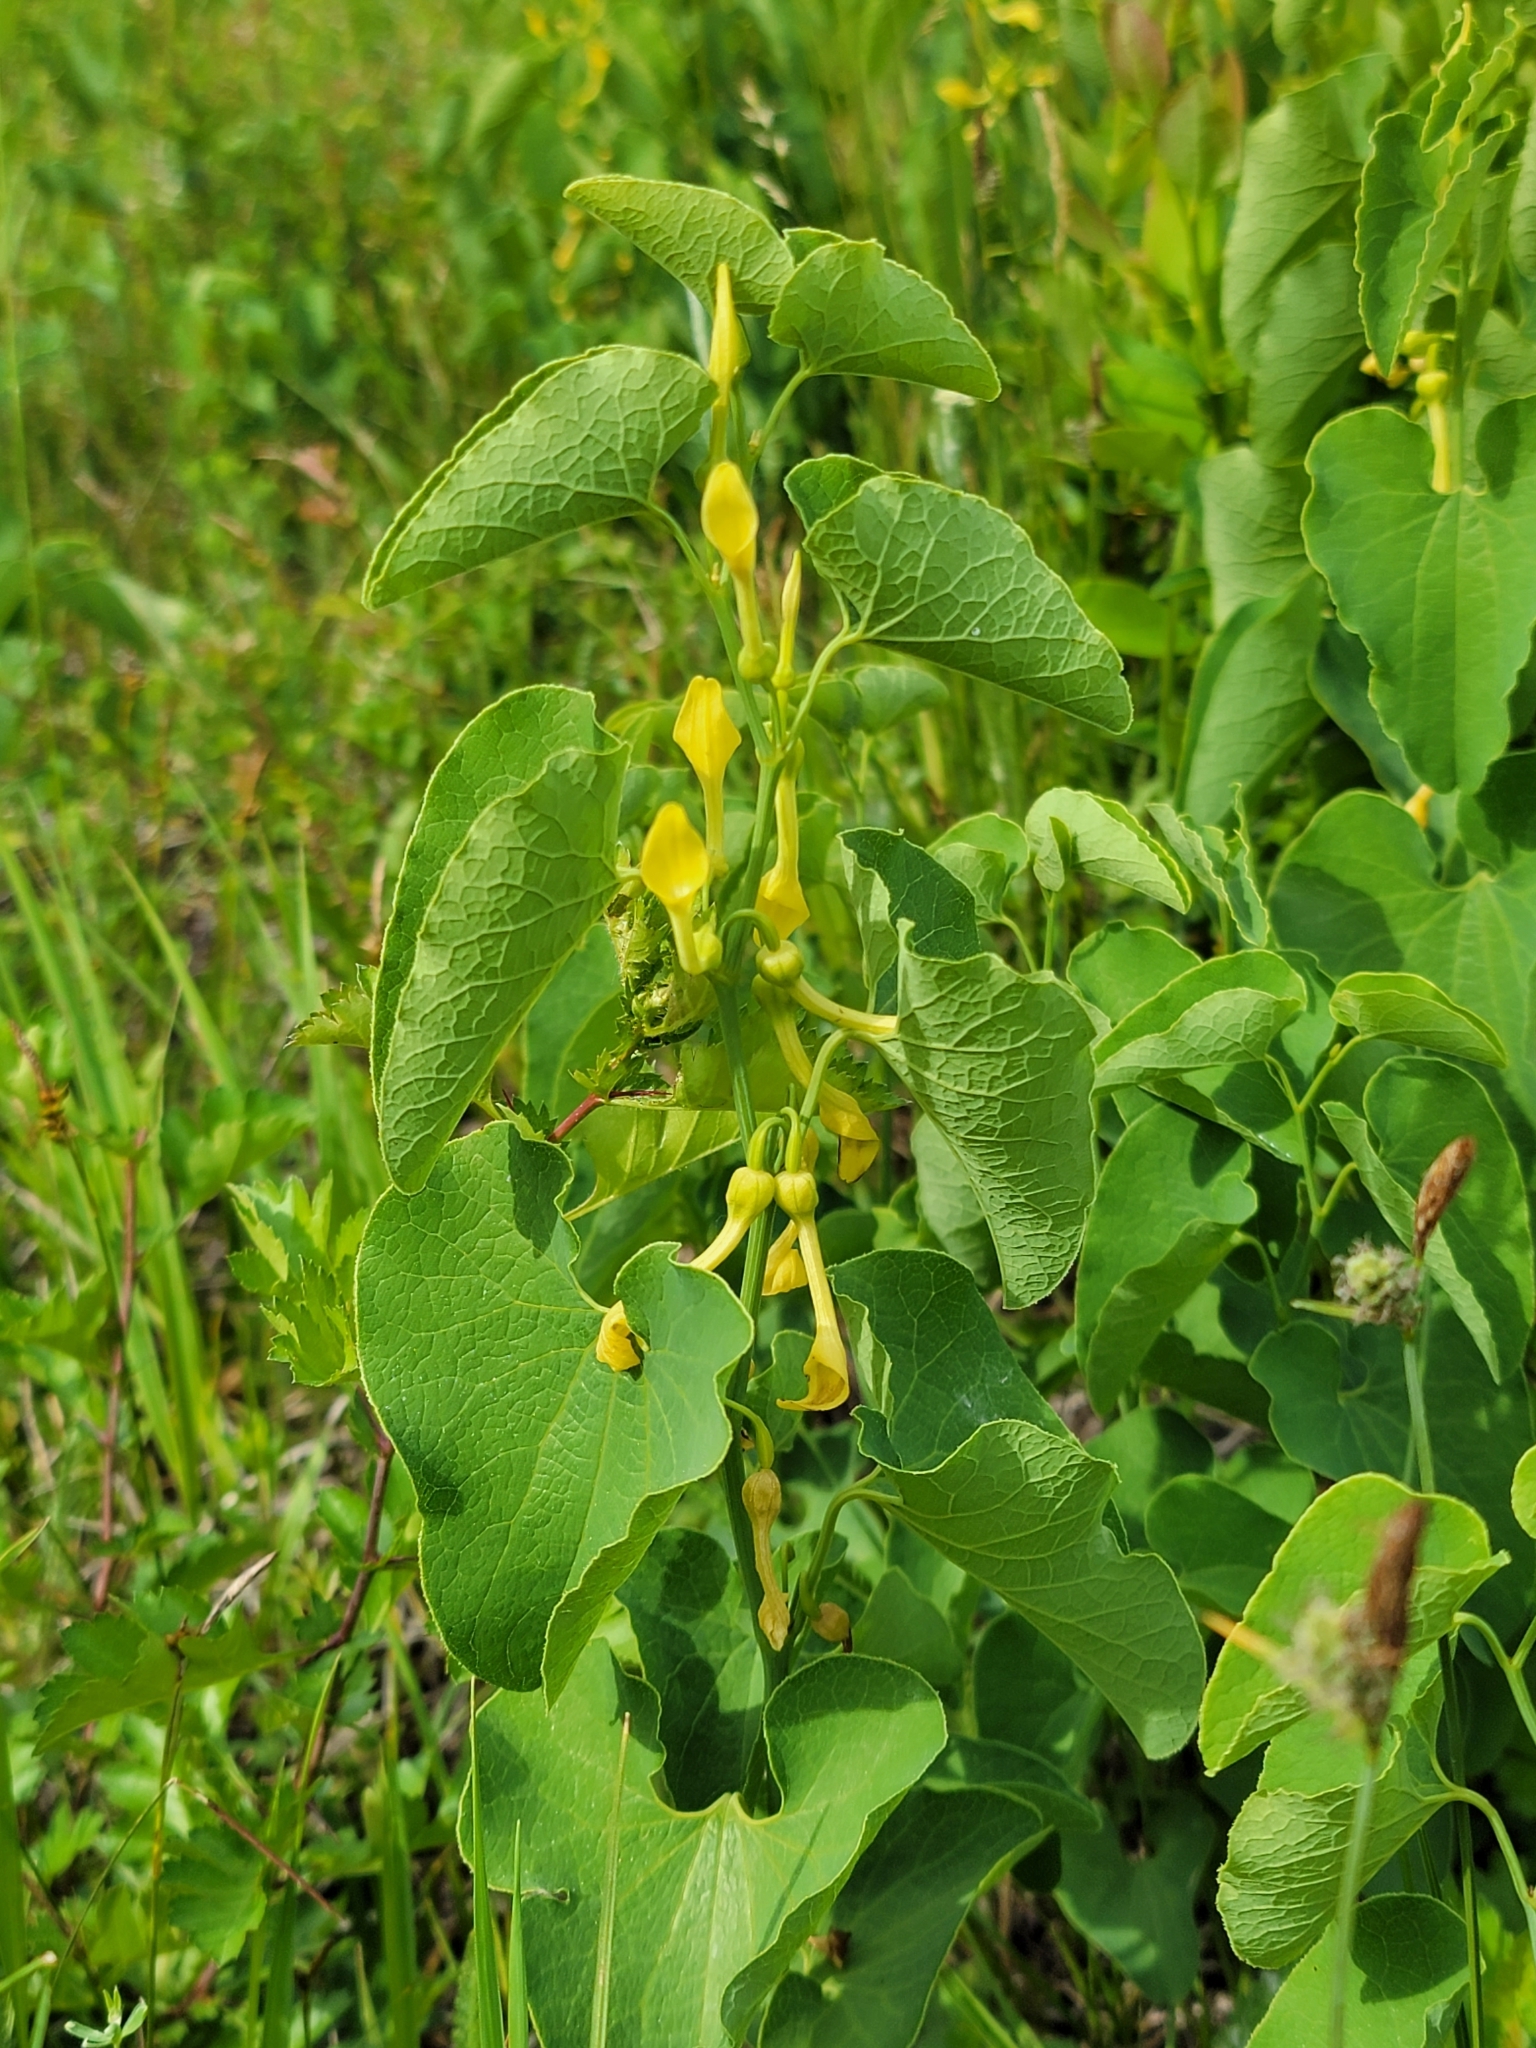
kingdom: Plantae
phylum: Tracheophyta
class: Magnoliopsida
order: Piperales
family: Aristolochiaceae
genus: Aristolochia
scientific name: Aristolochia clematitis
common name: Birthwort
